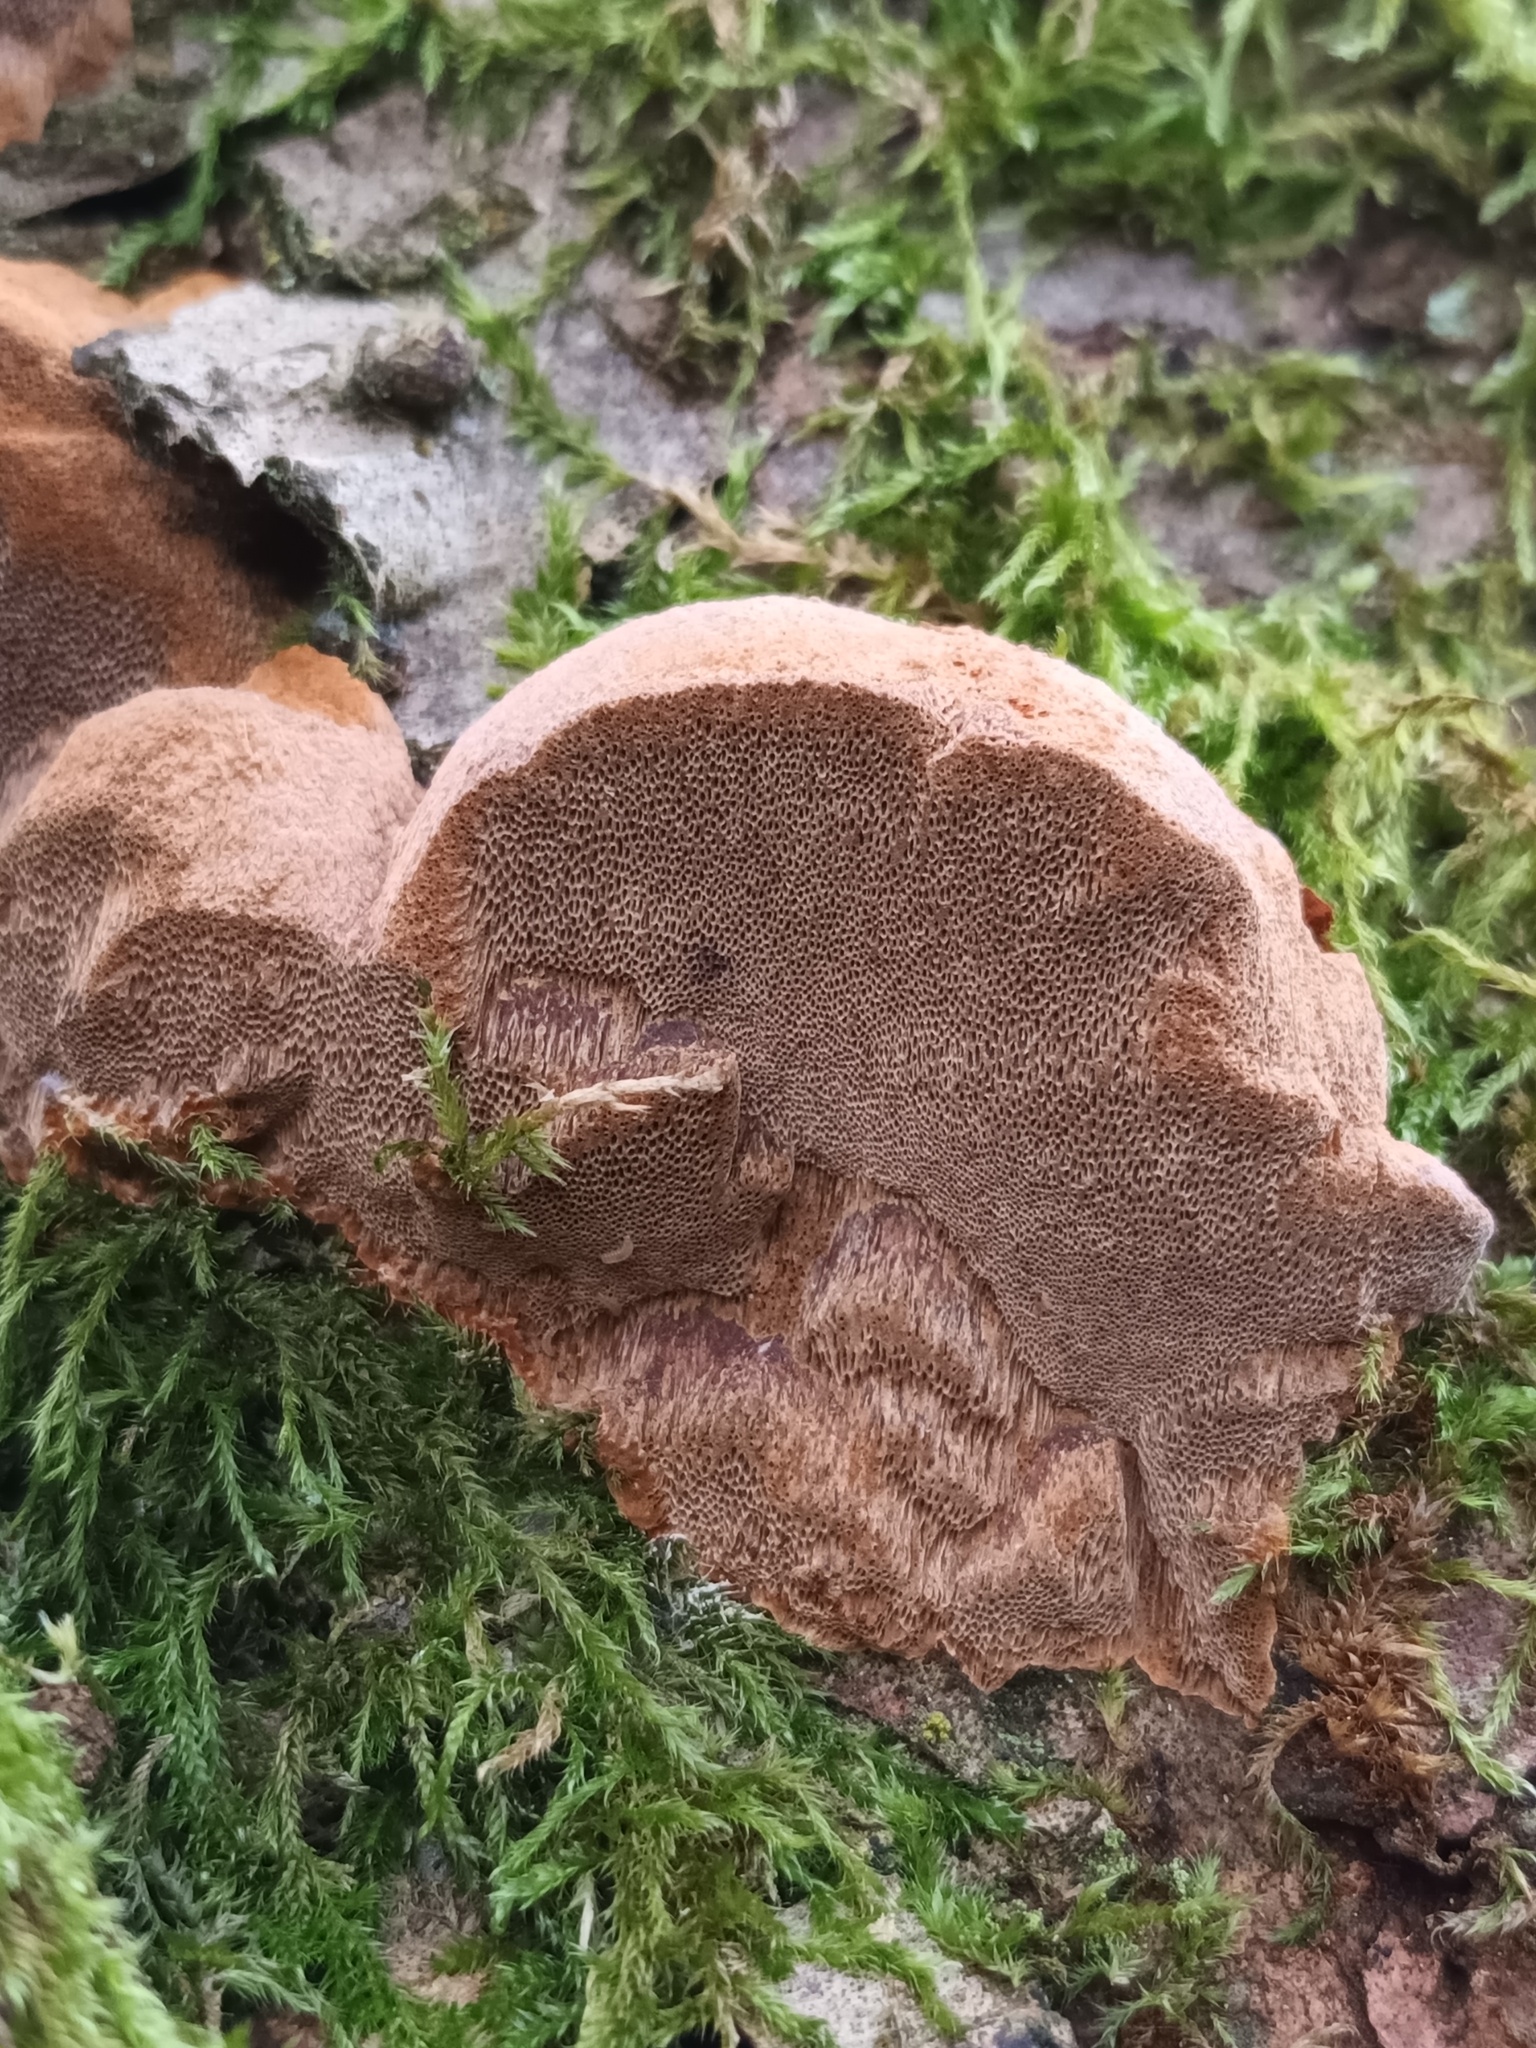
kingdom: Fungi
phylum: Basidiomycota
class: Agaricomycetes
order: Hymenochaetales
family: Hymenochaetaceae
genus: Phellinus
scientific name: Phellinus pomaceus
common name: Cushion bracket
